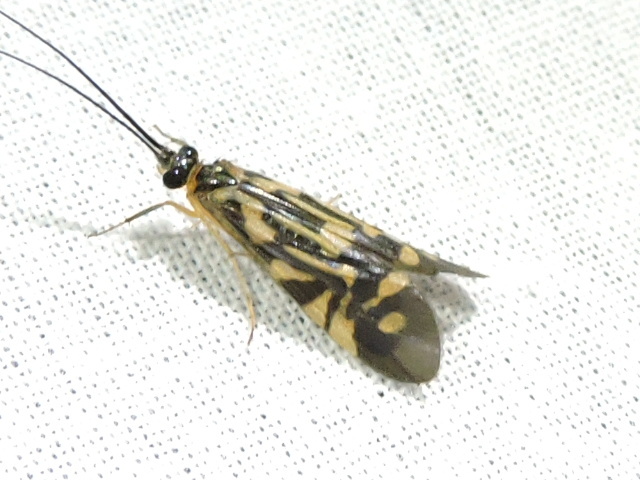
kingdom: Animalia
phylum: Arthropoda
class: Insecta
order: Trichoptera
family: Hydropsychidae
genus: Macrostemum
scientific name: Macrostemum carolina
